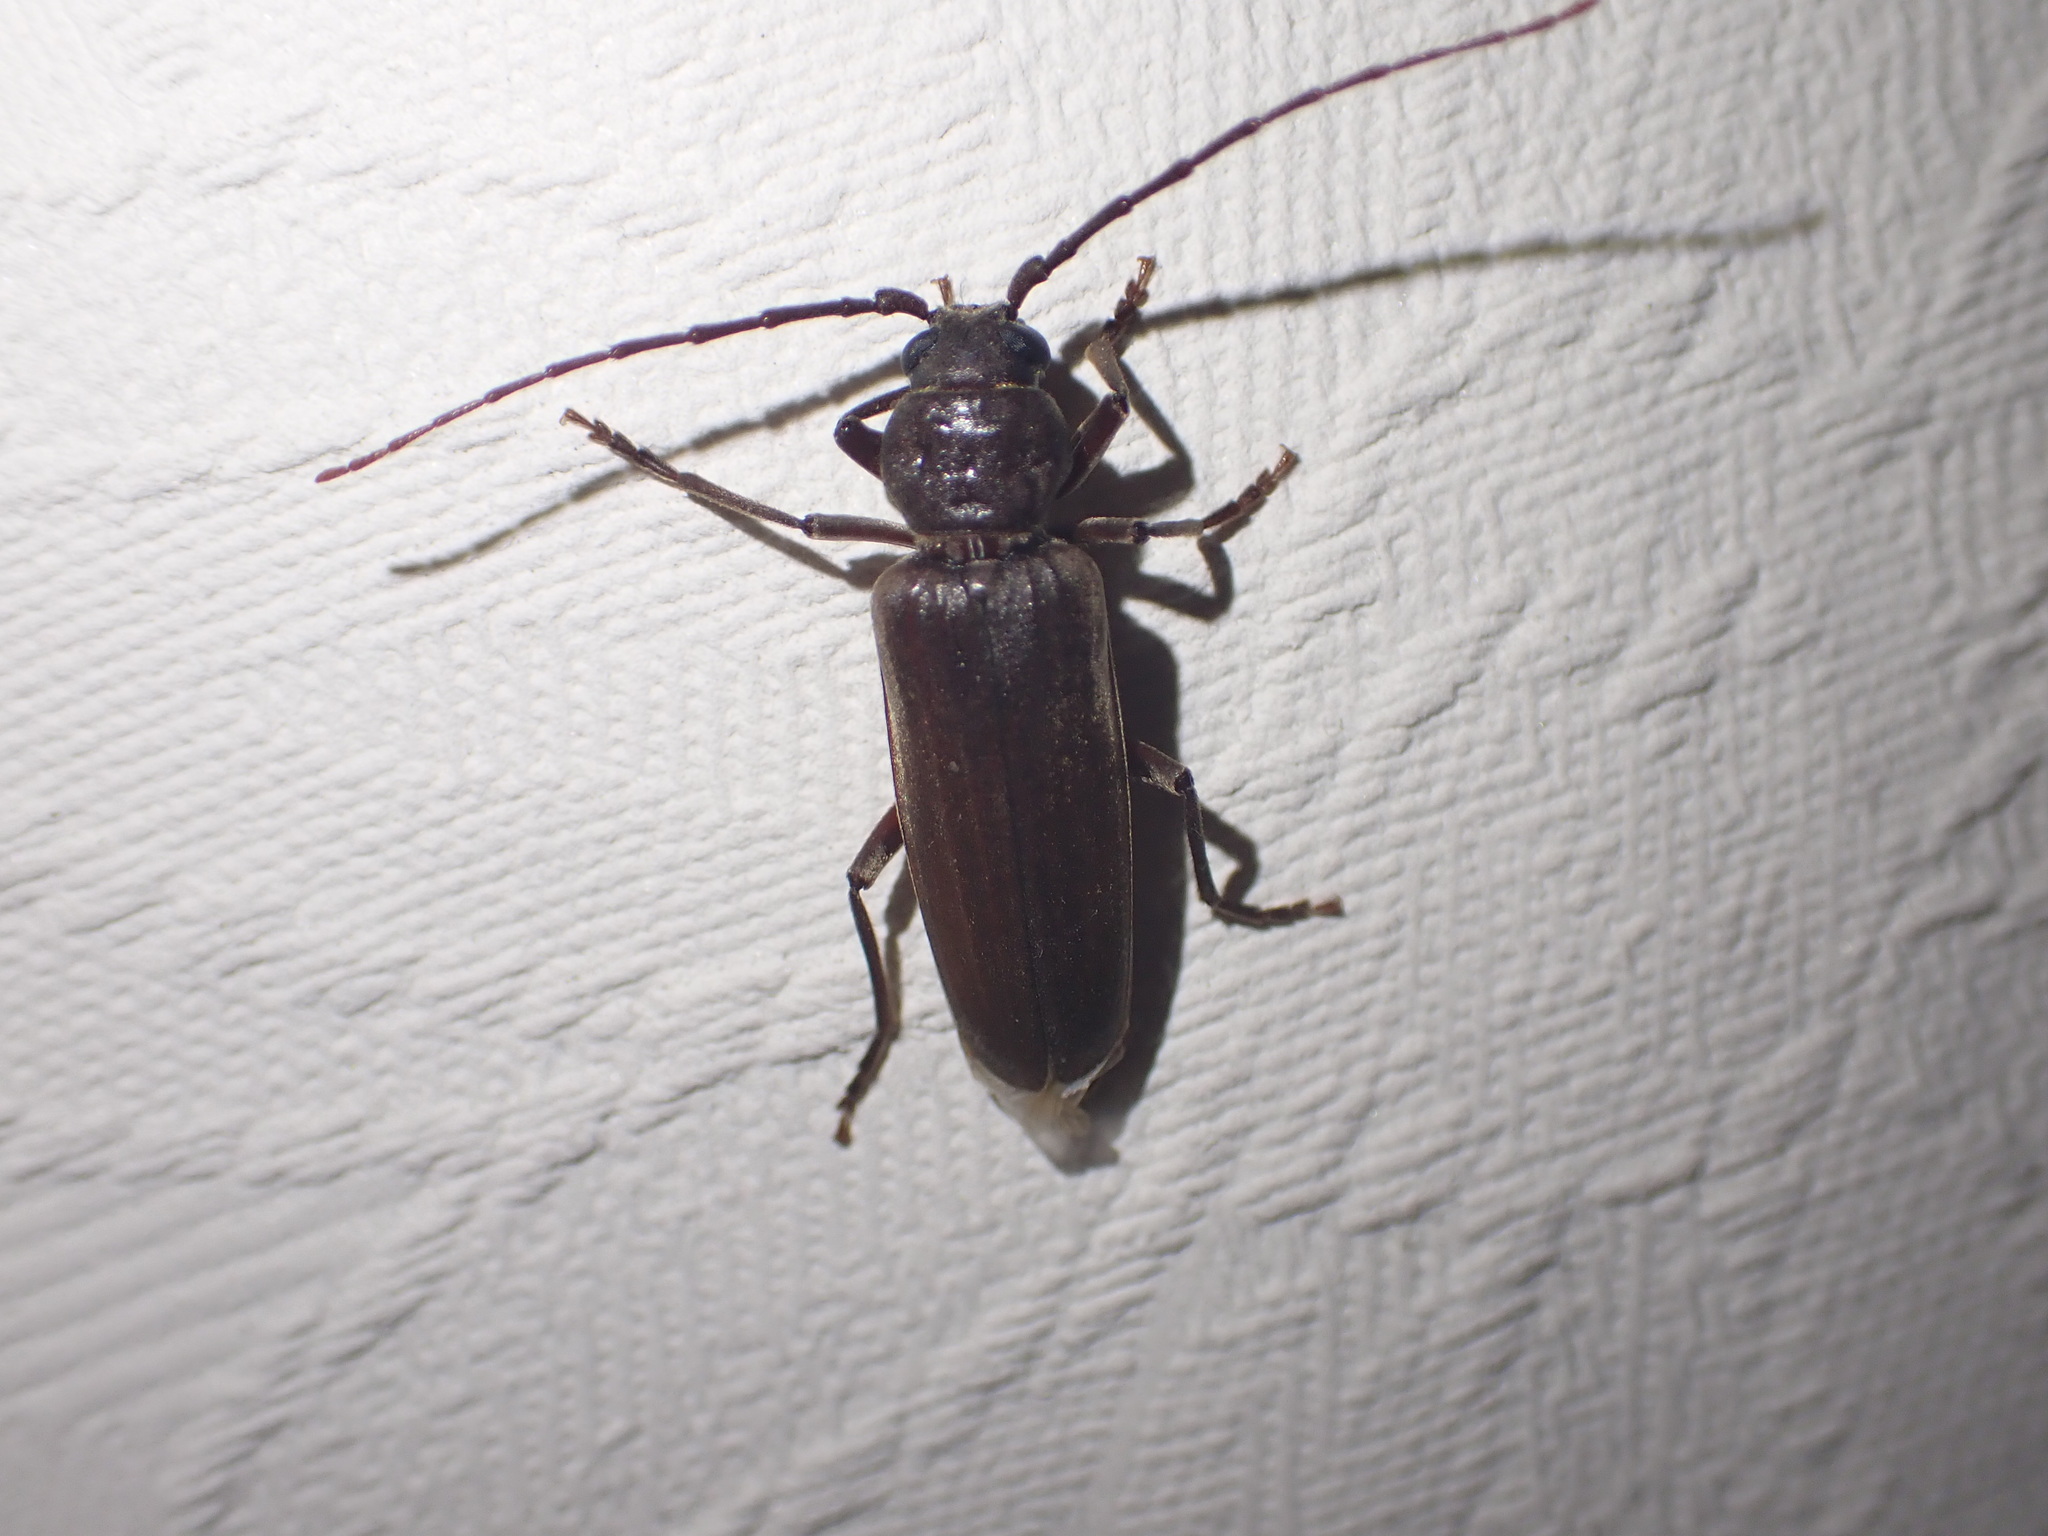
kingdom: Animalia
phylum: Arthropoda
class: Insecta
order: Coleoptera
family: Cerambycidae
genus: Arhopalus
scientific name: Arhopalus ferus
